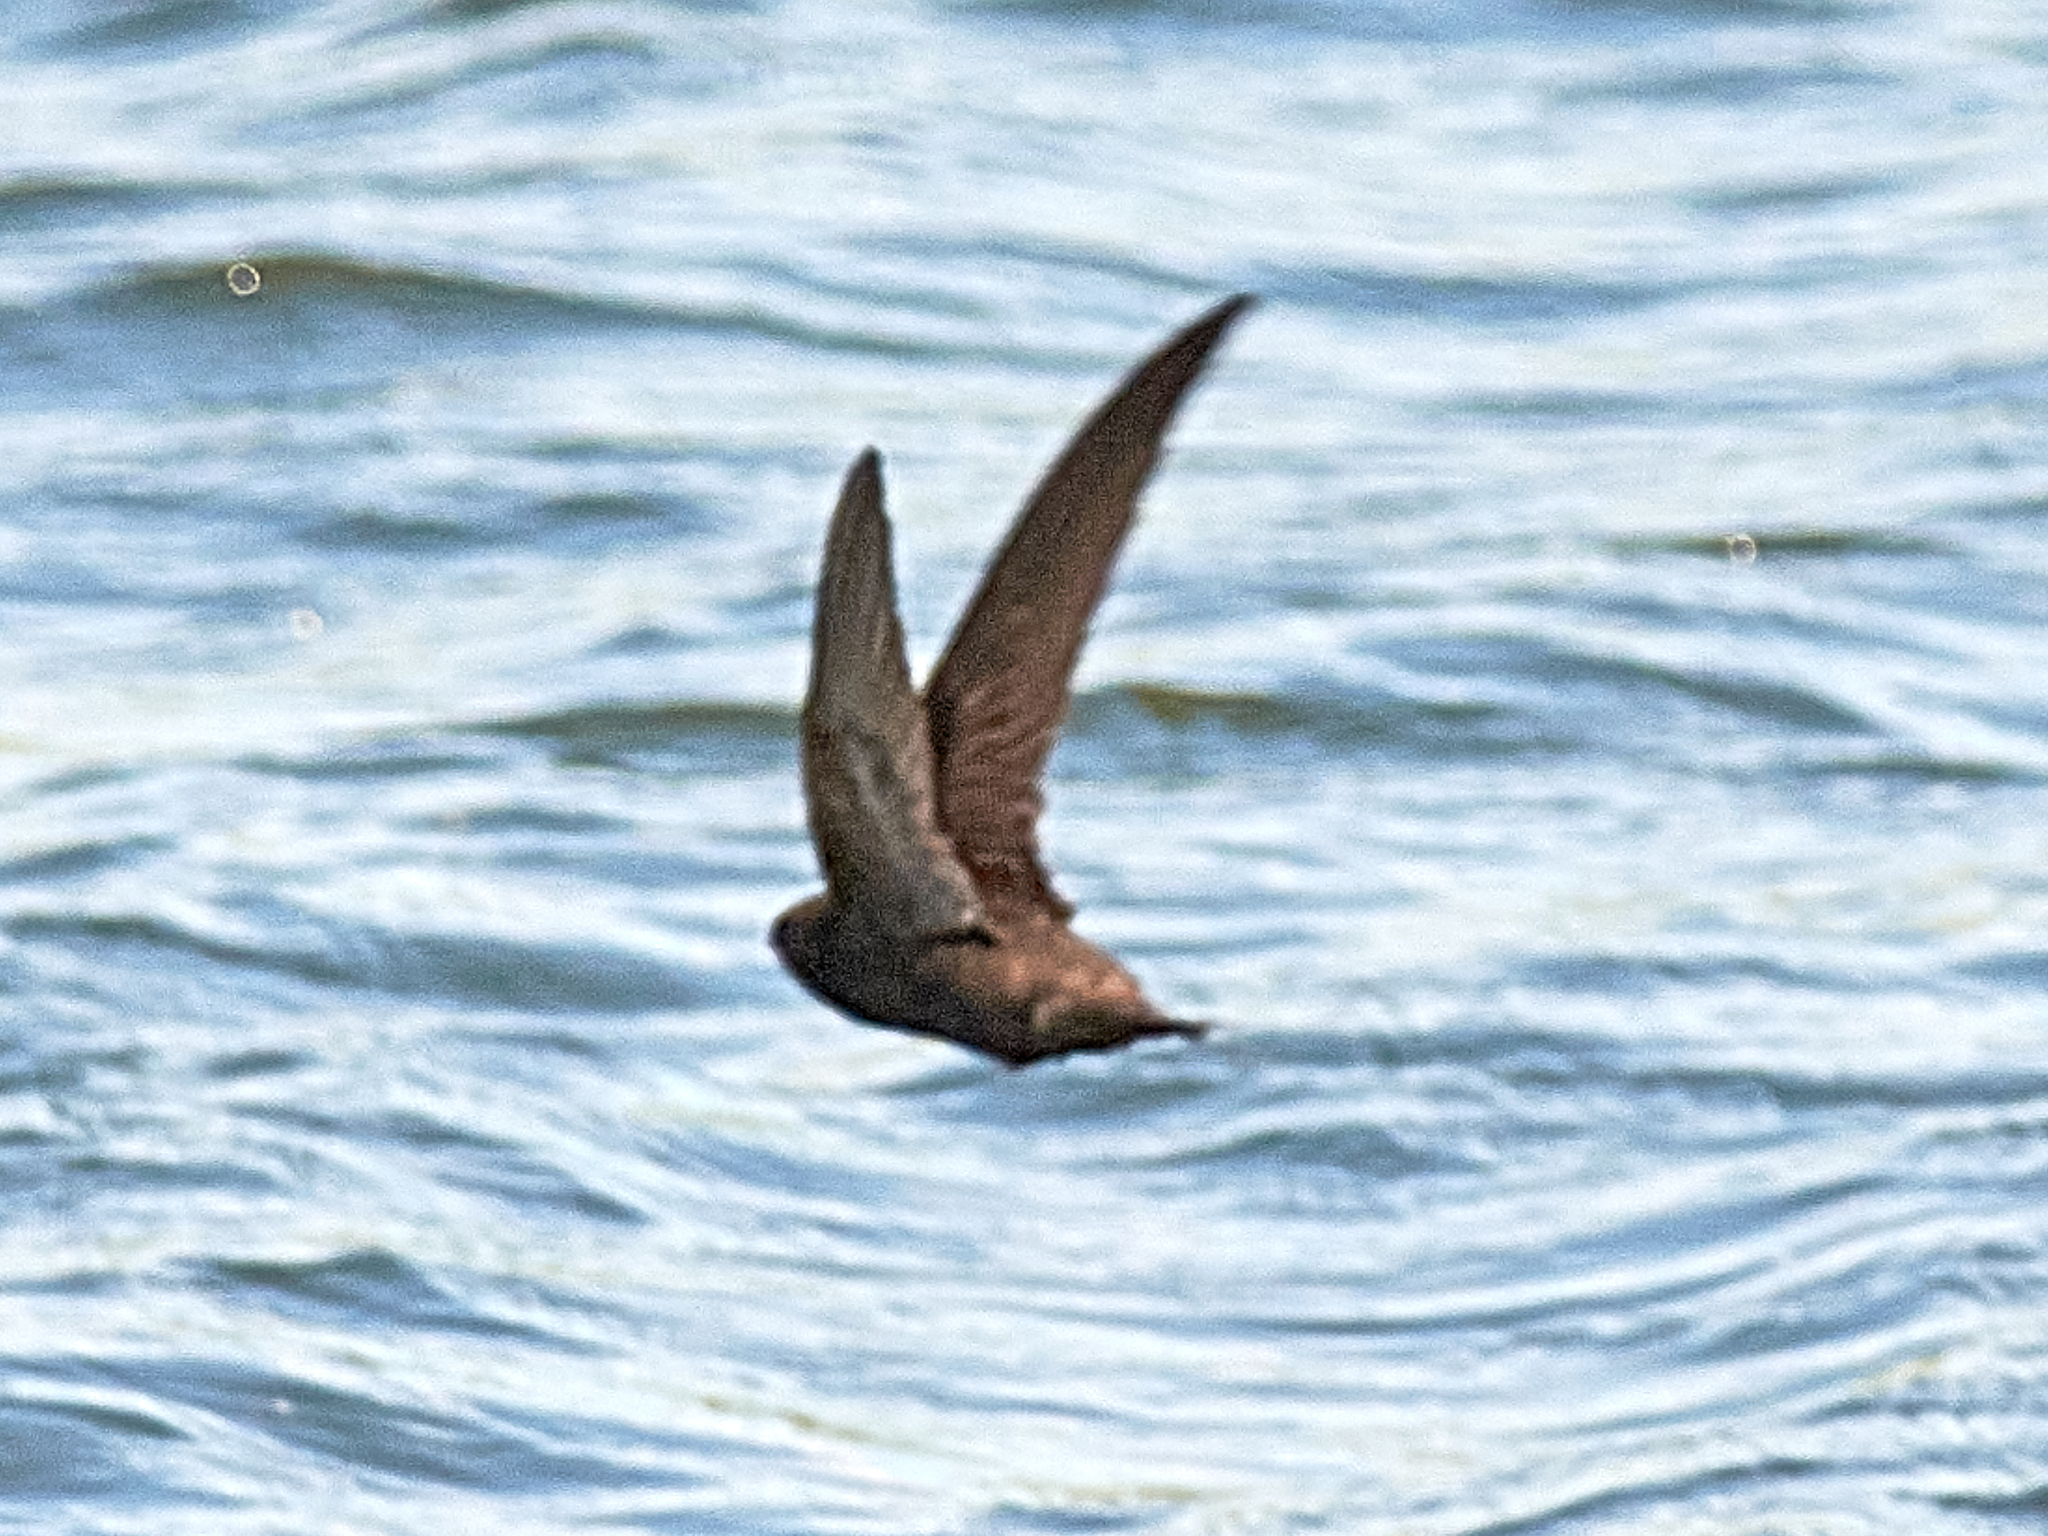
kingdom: Animalia
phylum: Chordata
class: Aves
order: Apodiformes
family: Apodidae
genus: Apus
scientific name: Apus apus
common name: Common swift
